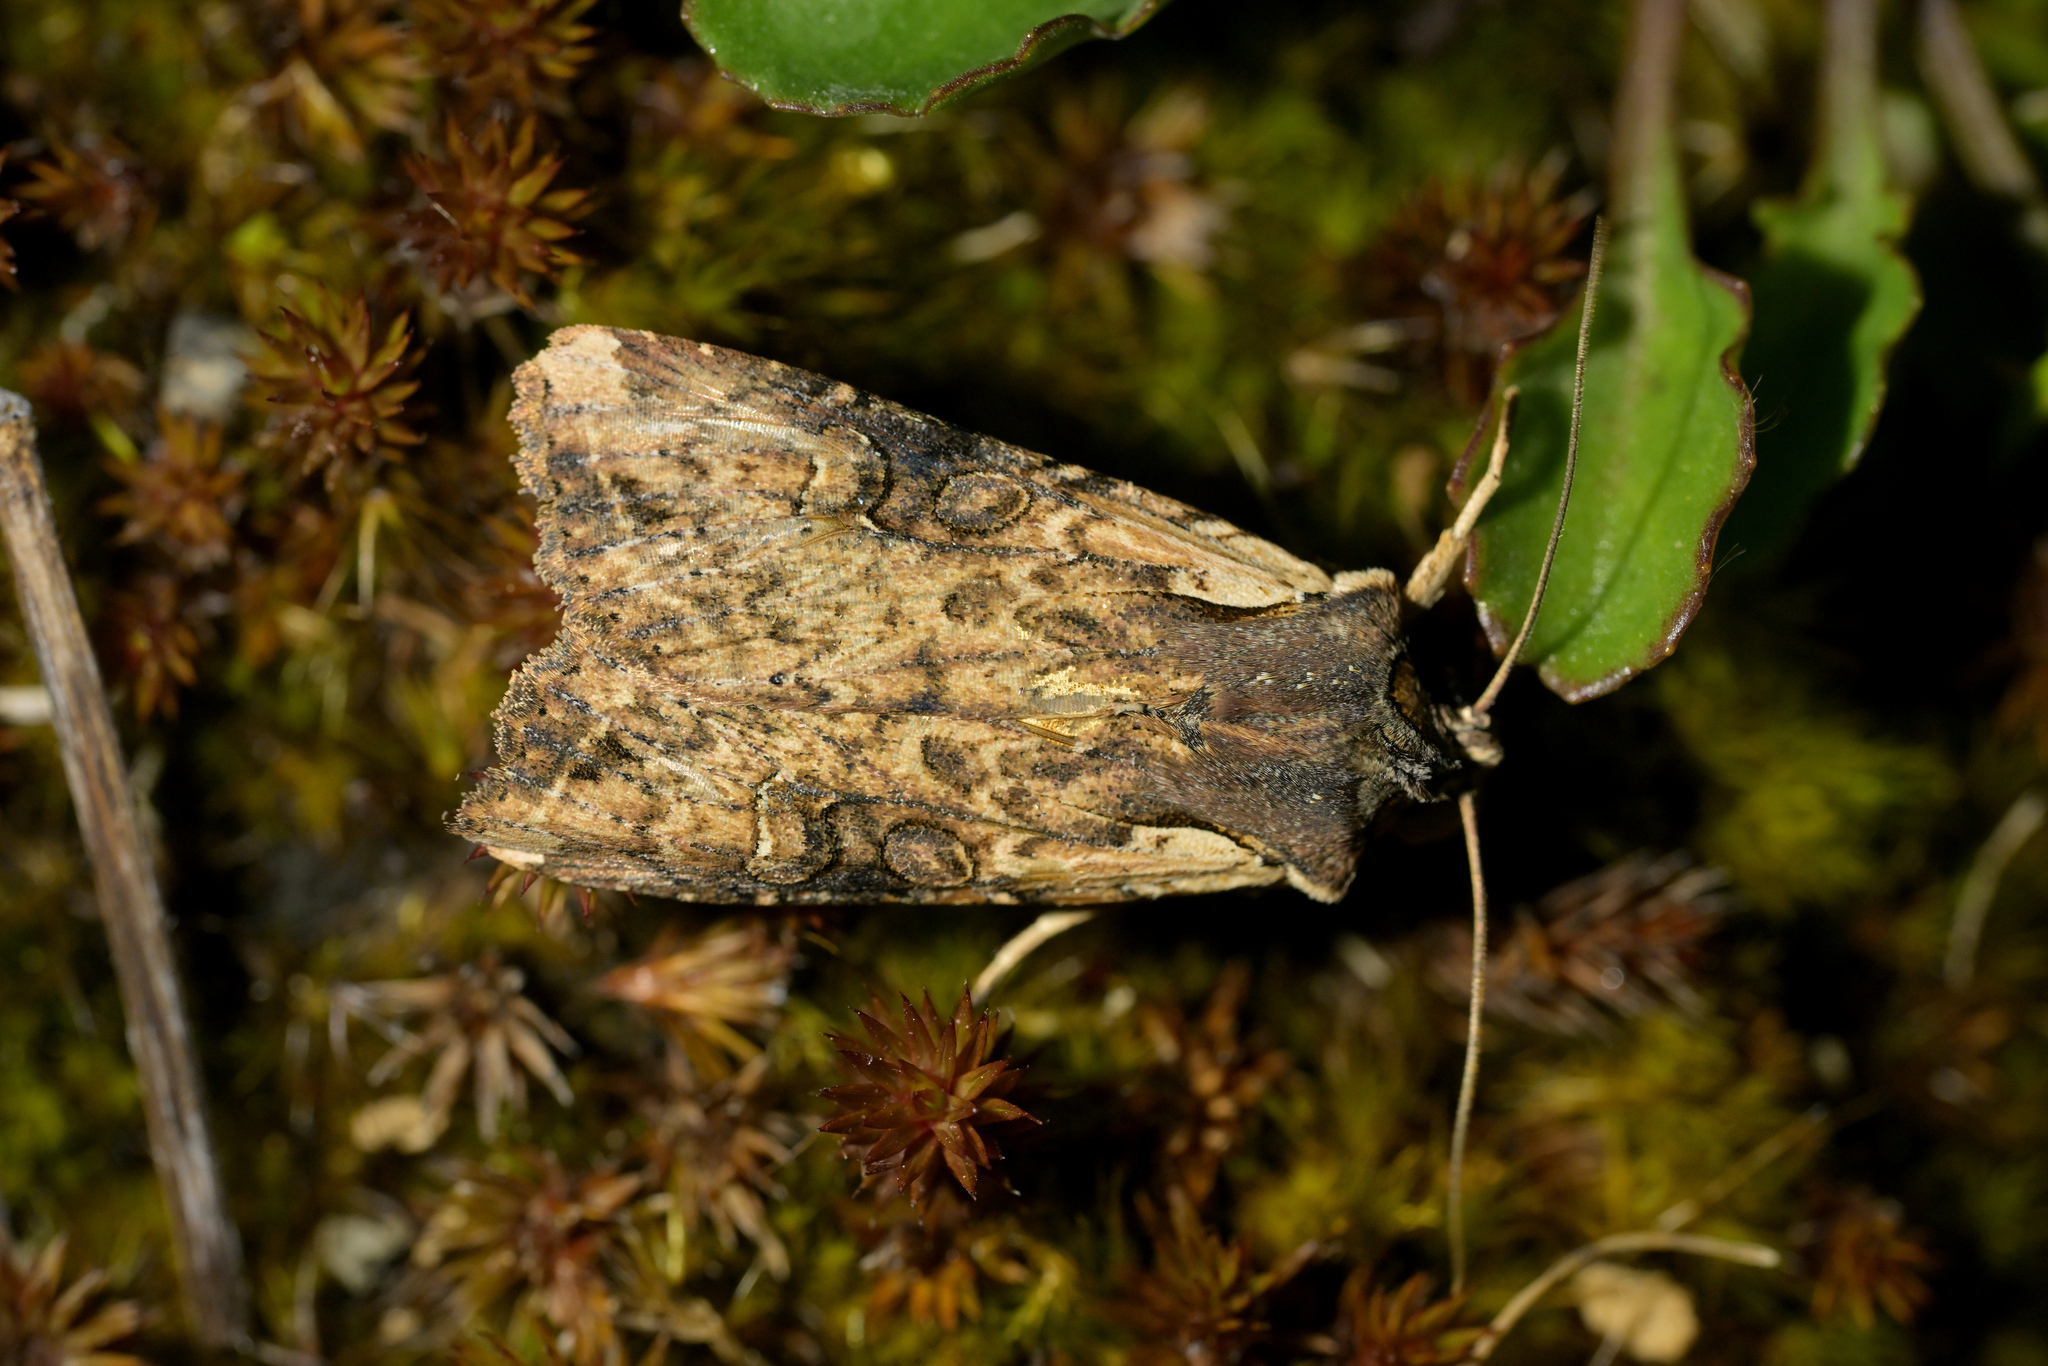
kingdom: Animalia
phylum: Arthropoda
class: Insecta
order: Lepidoptera
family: Noctuidae
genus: Ichneutica
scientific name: Ichneutica omoplaca
